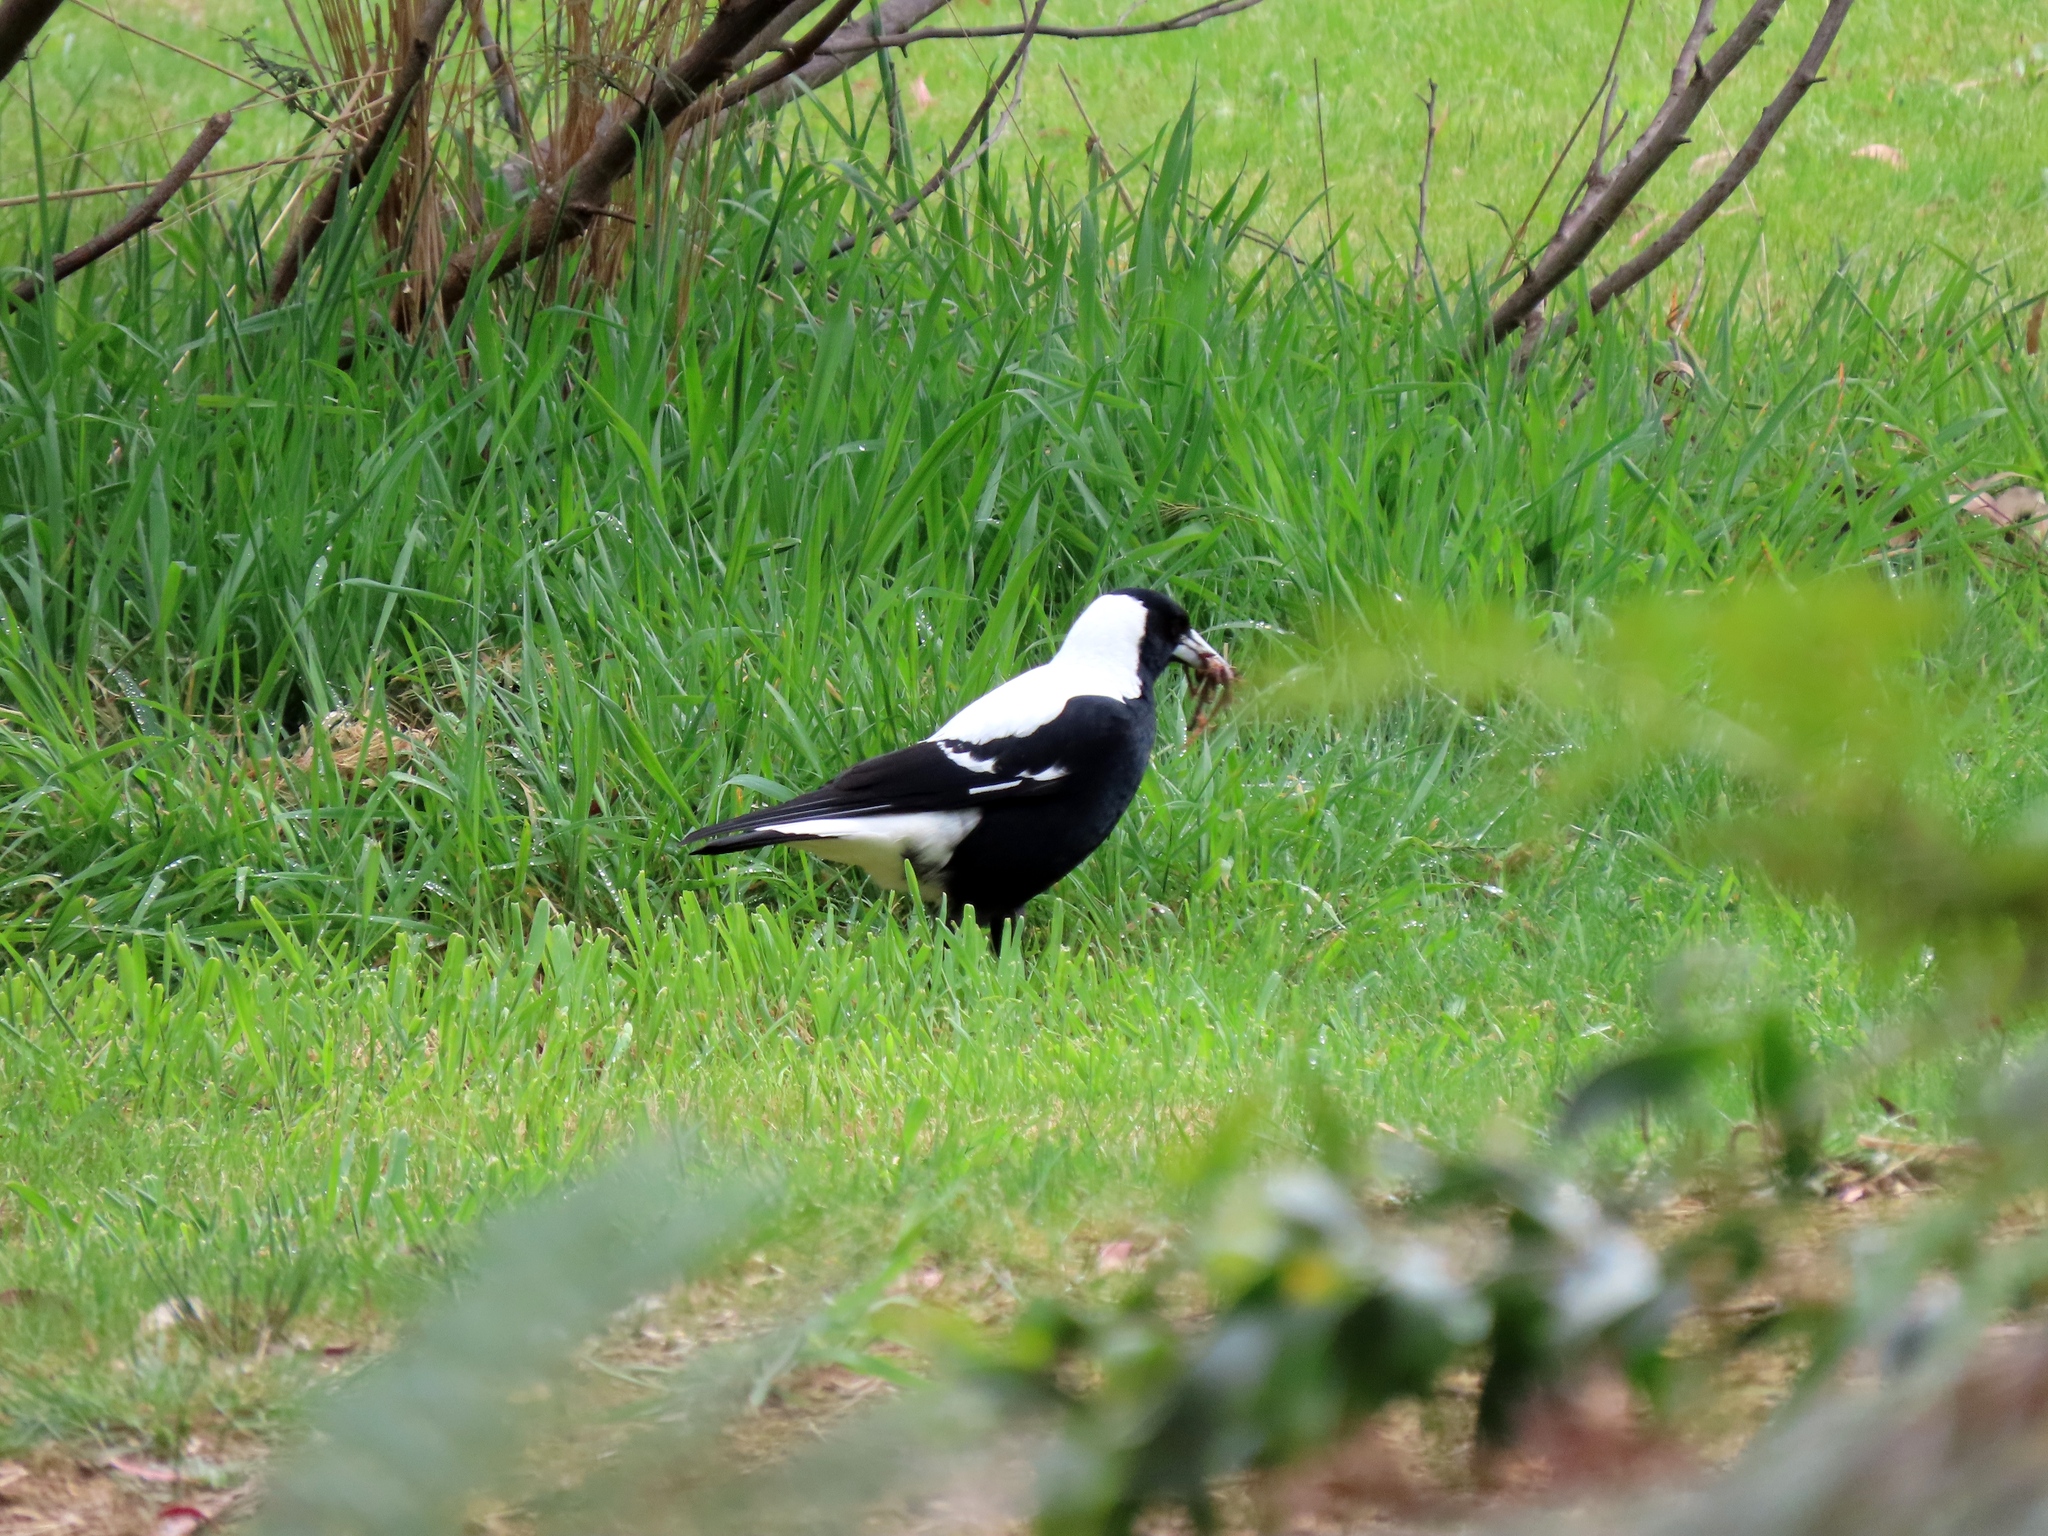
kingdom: Animalia
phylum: Chordata
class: Aves
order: Passeriformes
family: Cracticidae
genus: Gymnorhina
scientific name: Gymnorhina tibicen
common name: Australian magpie
